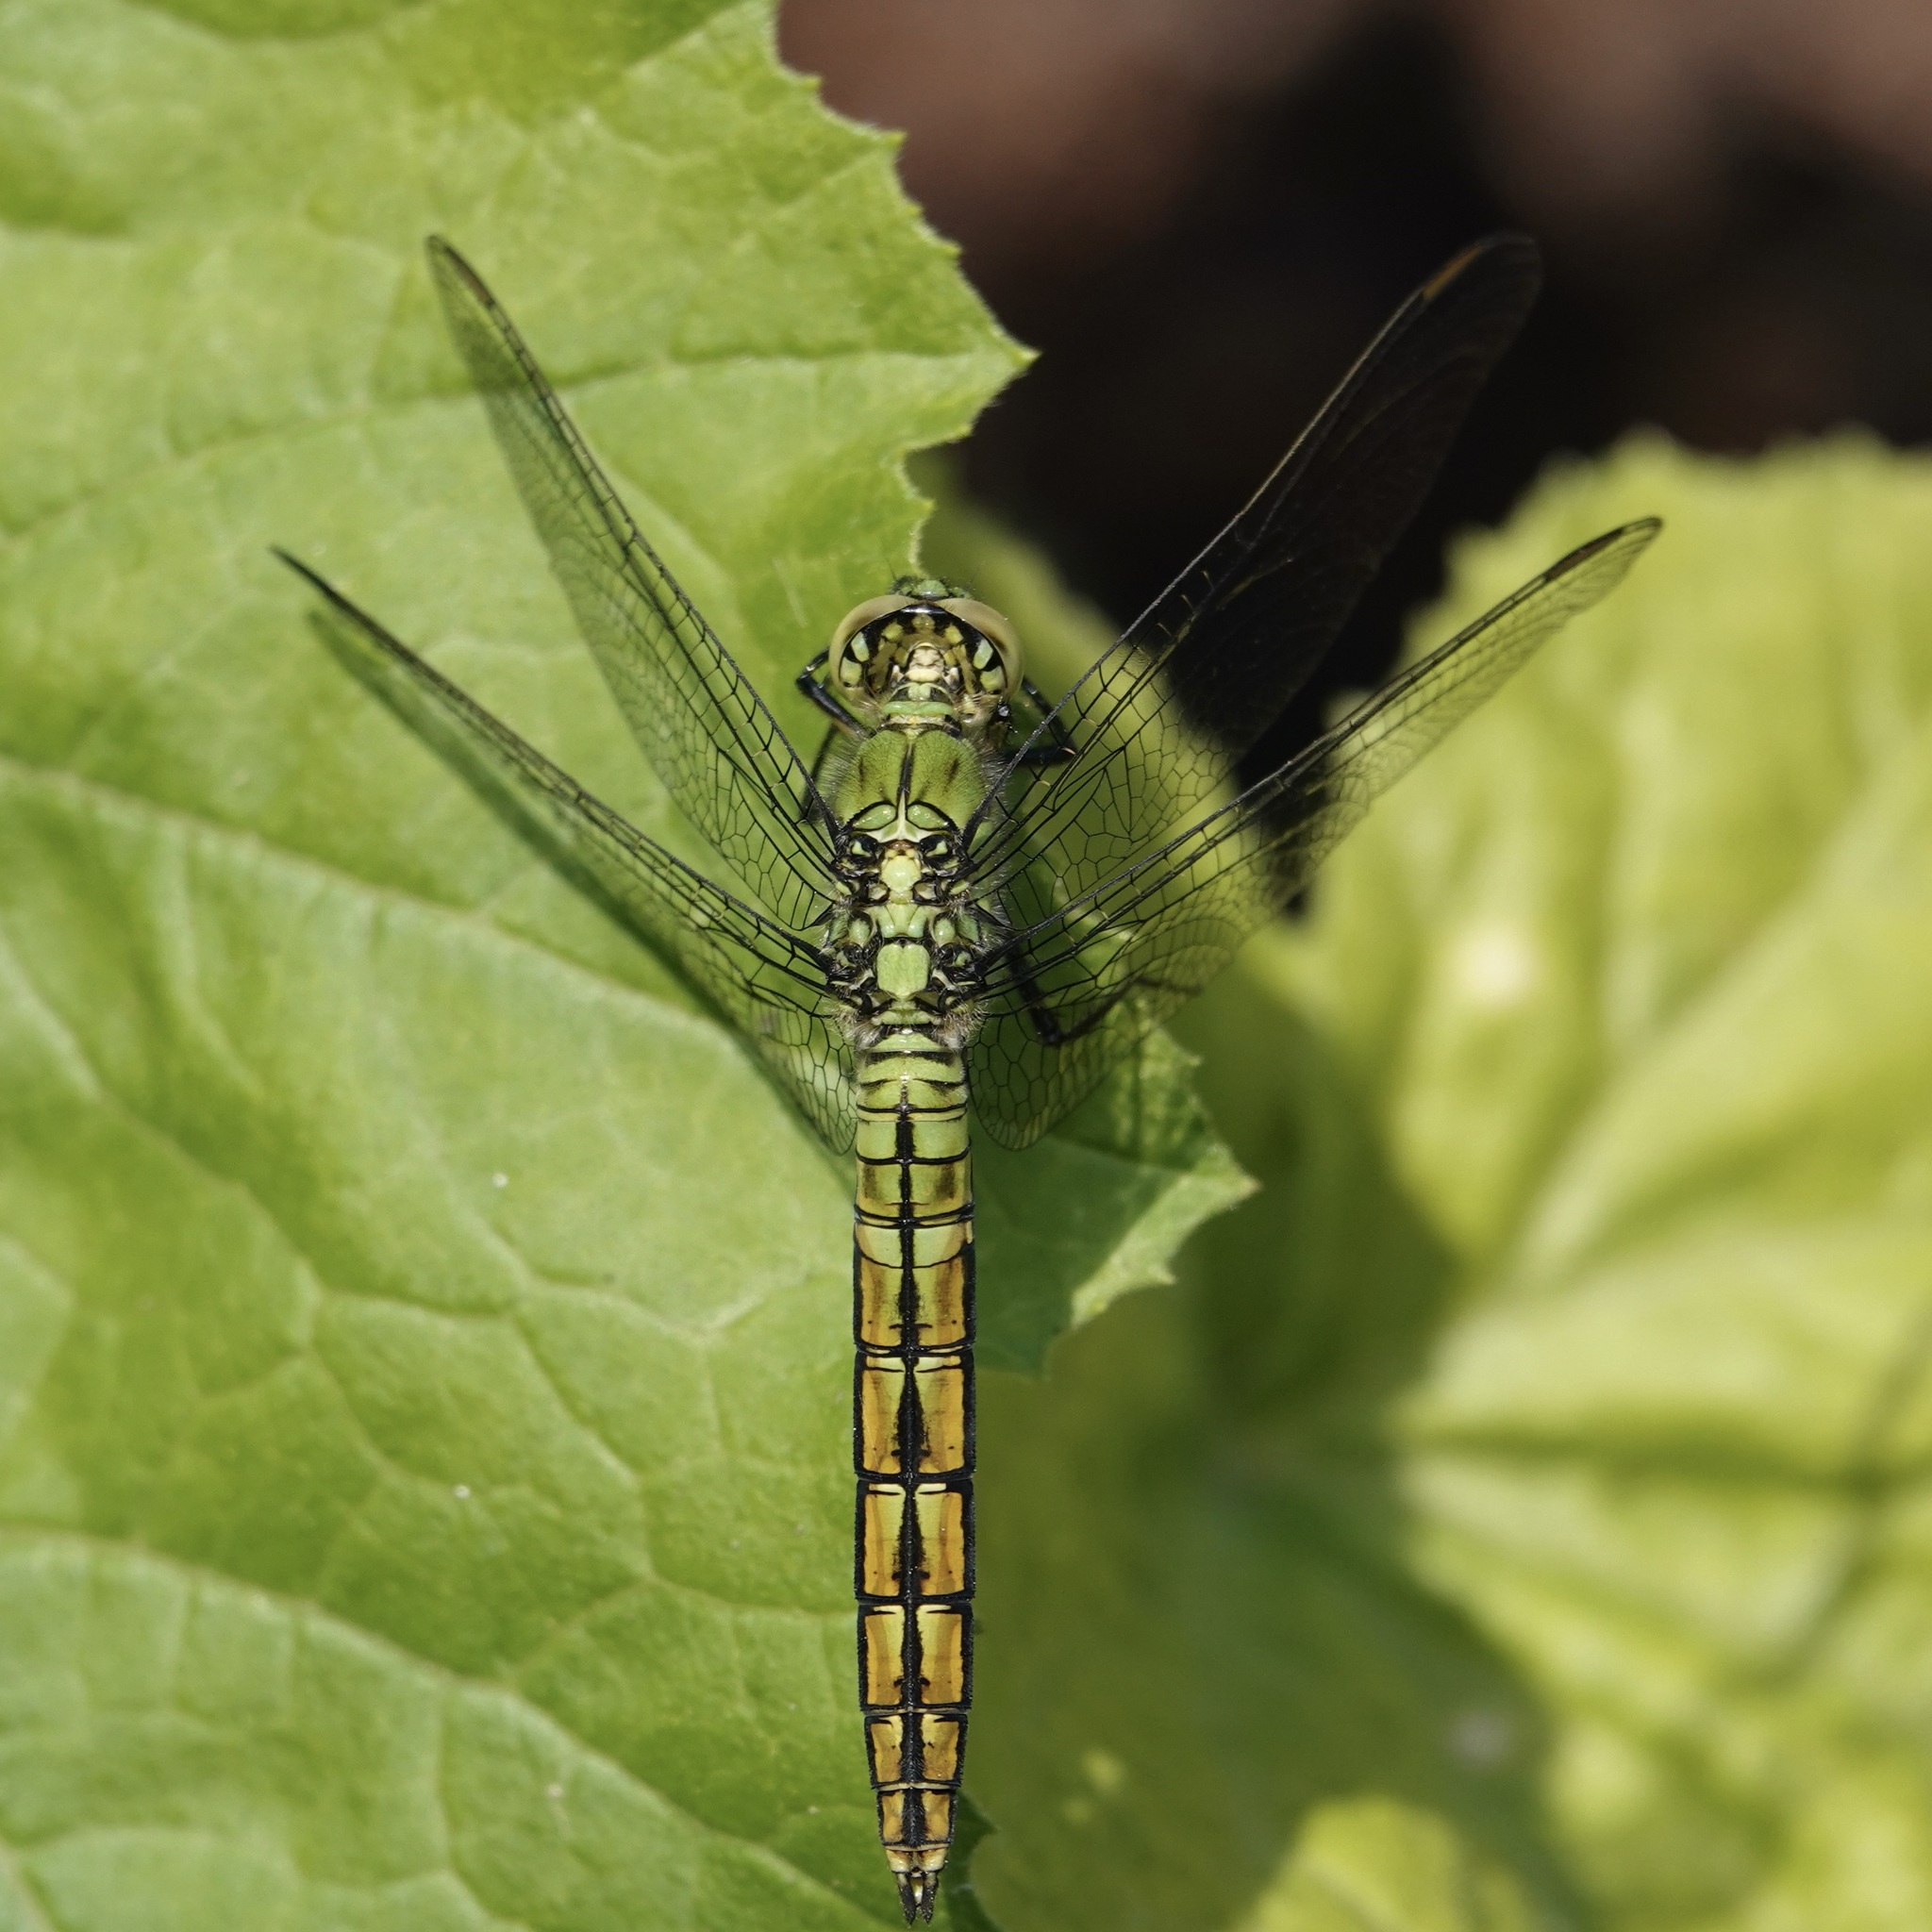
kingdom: Animalia
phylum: Arthropoda
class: Insecta
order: Odonata
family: Libellulidae
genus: Erythemis
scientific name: Erythemis collocata
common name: Western pondhawk
